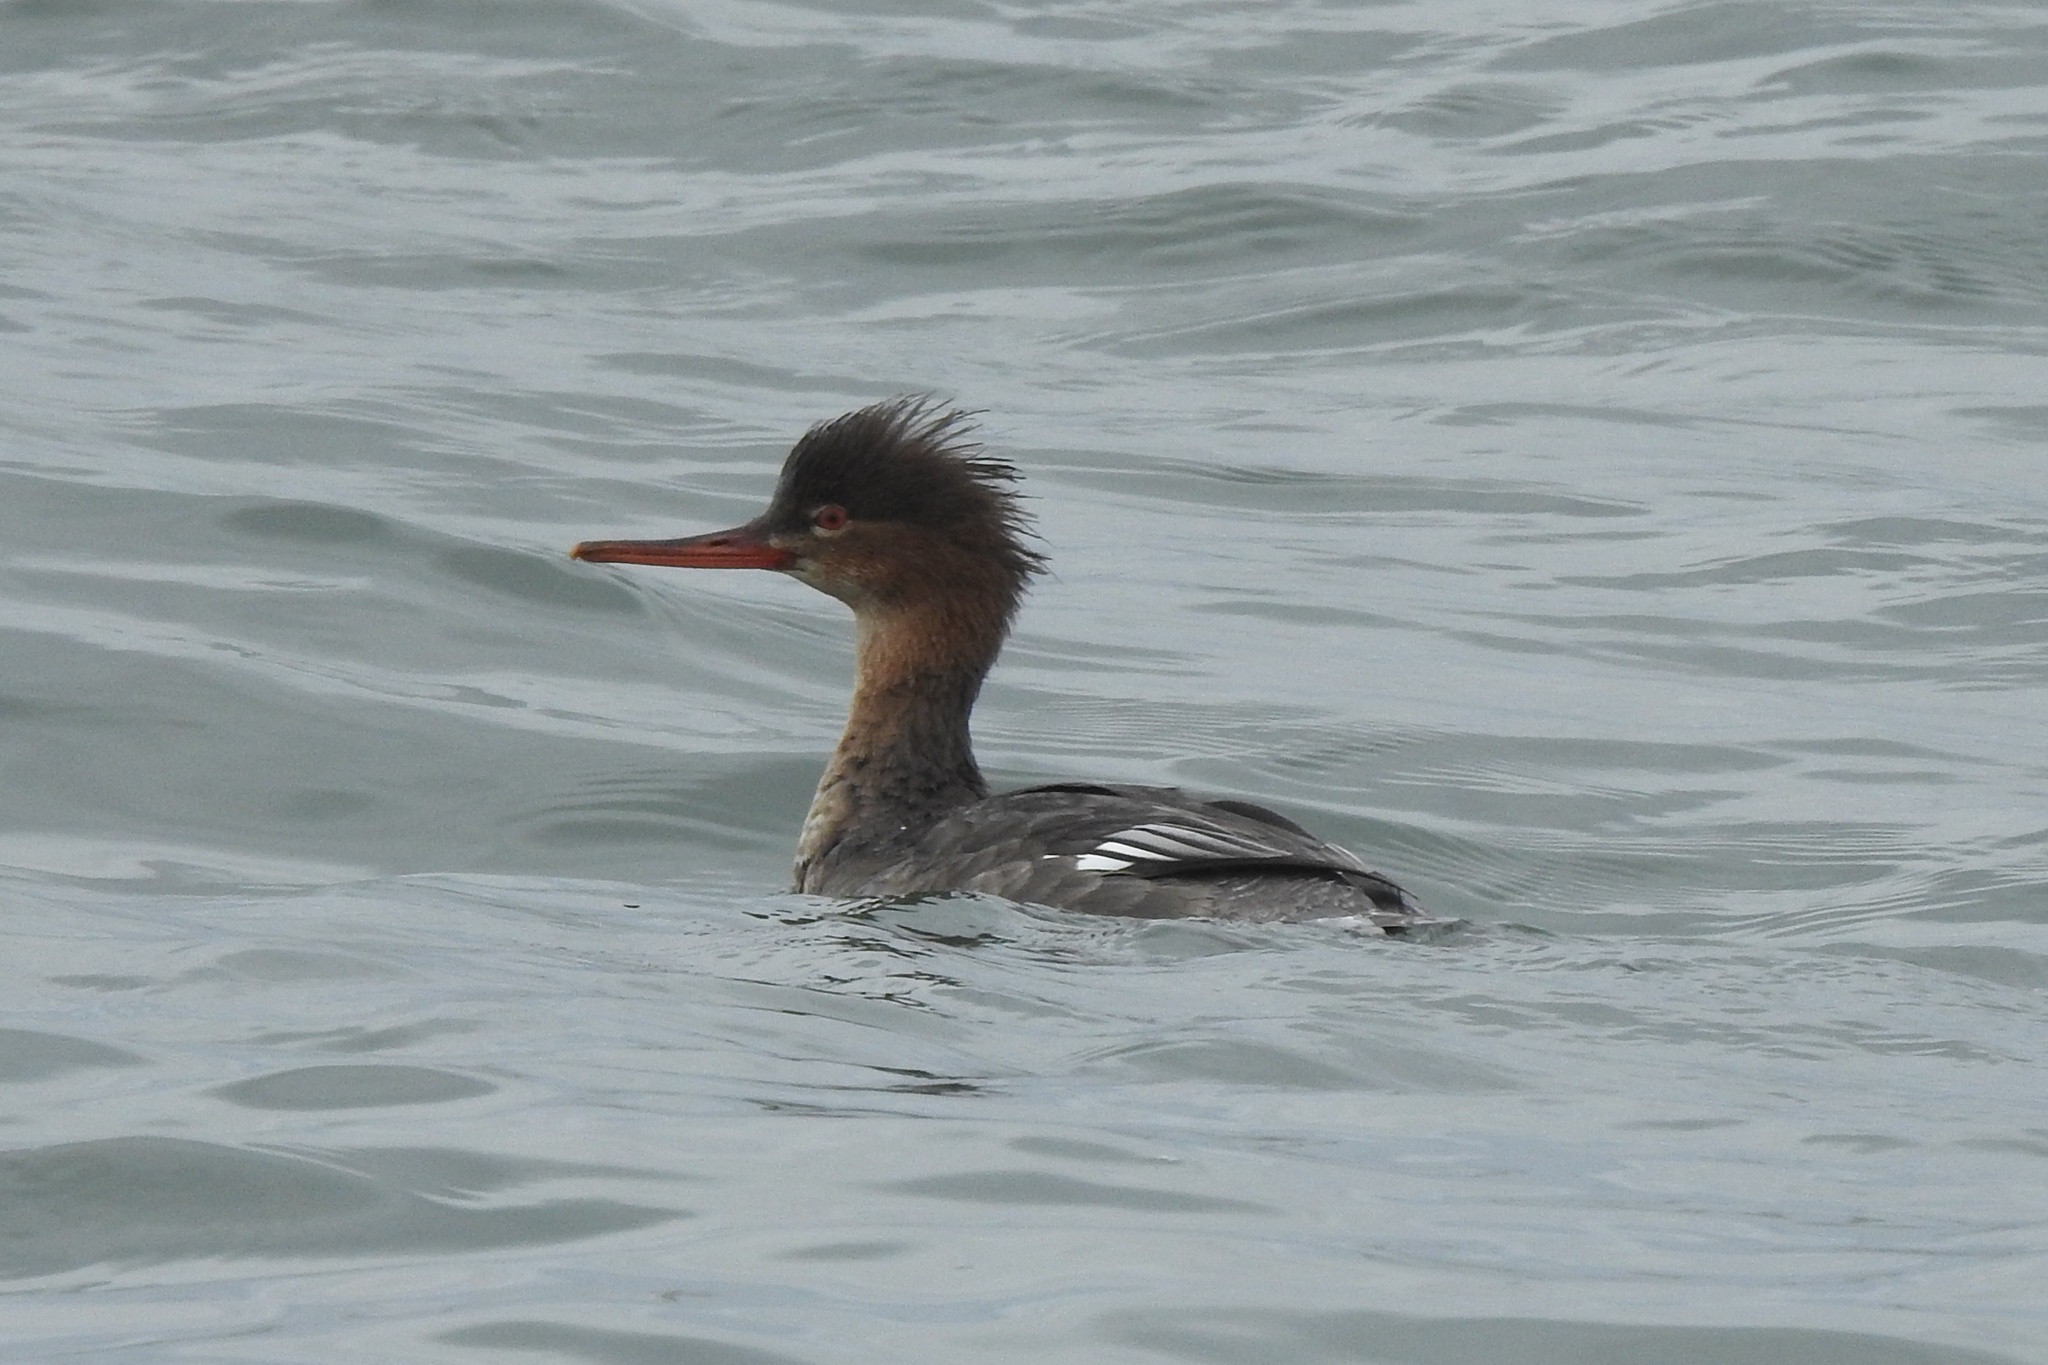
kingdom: Animalia
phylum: Chordata
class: Aves
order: Anseriformes
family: Anatidae
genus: Mergus
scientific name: Mergus serrator
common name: Red-breasted merganser
